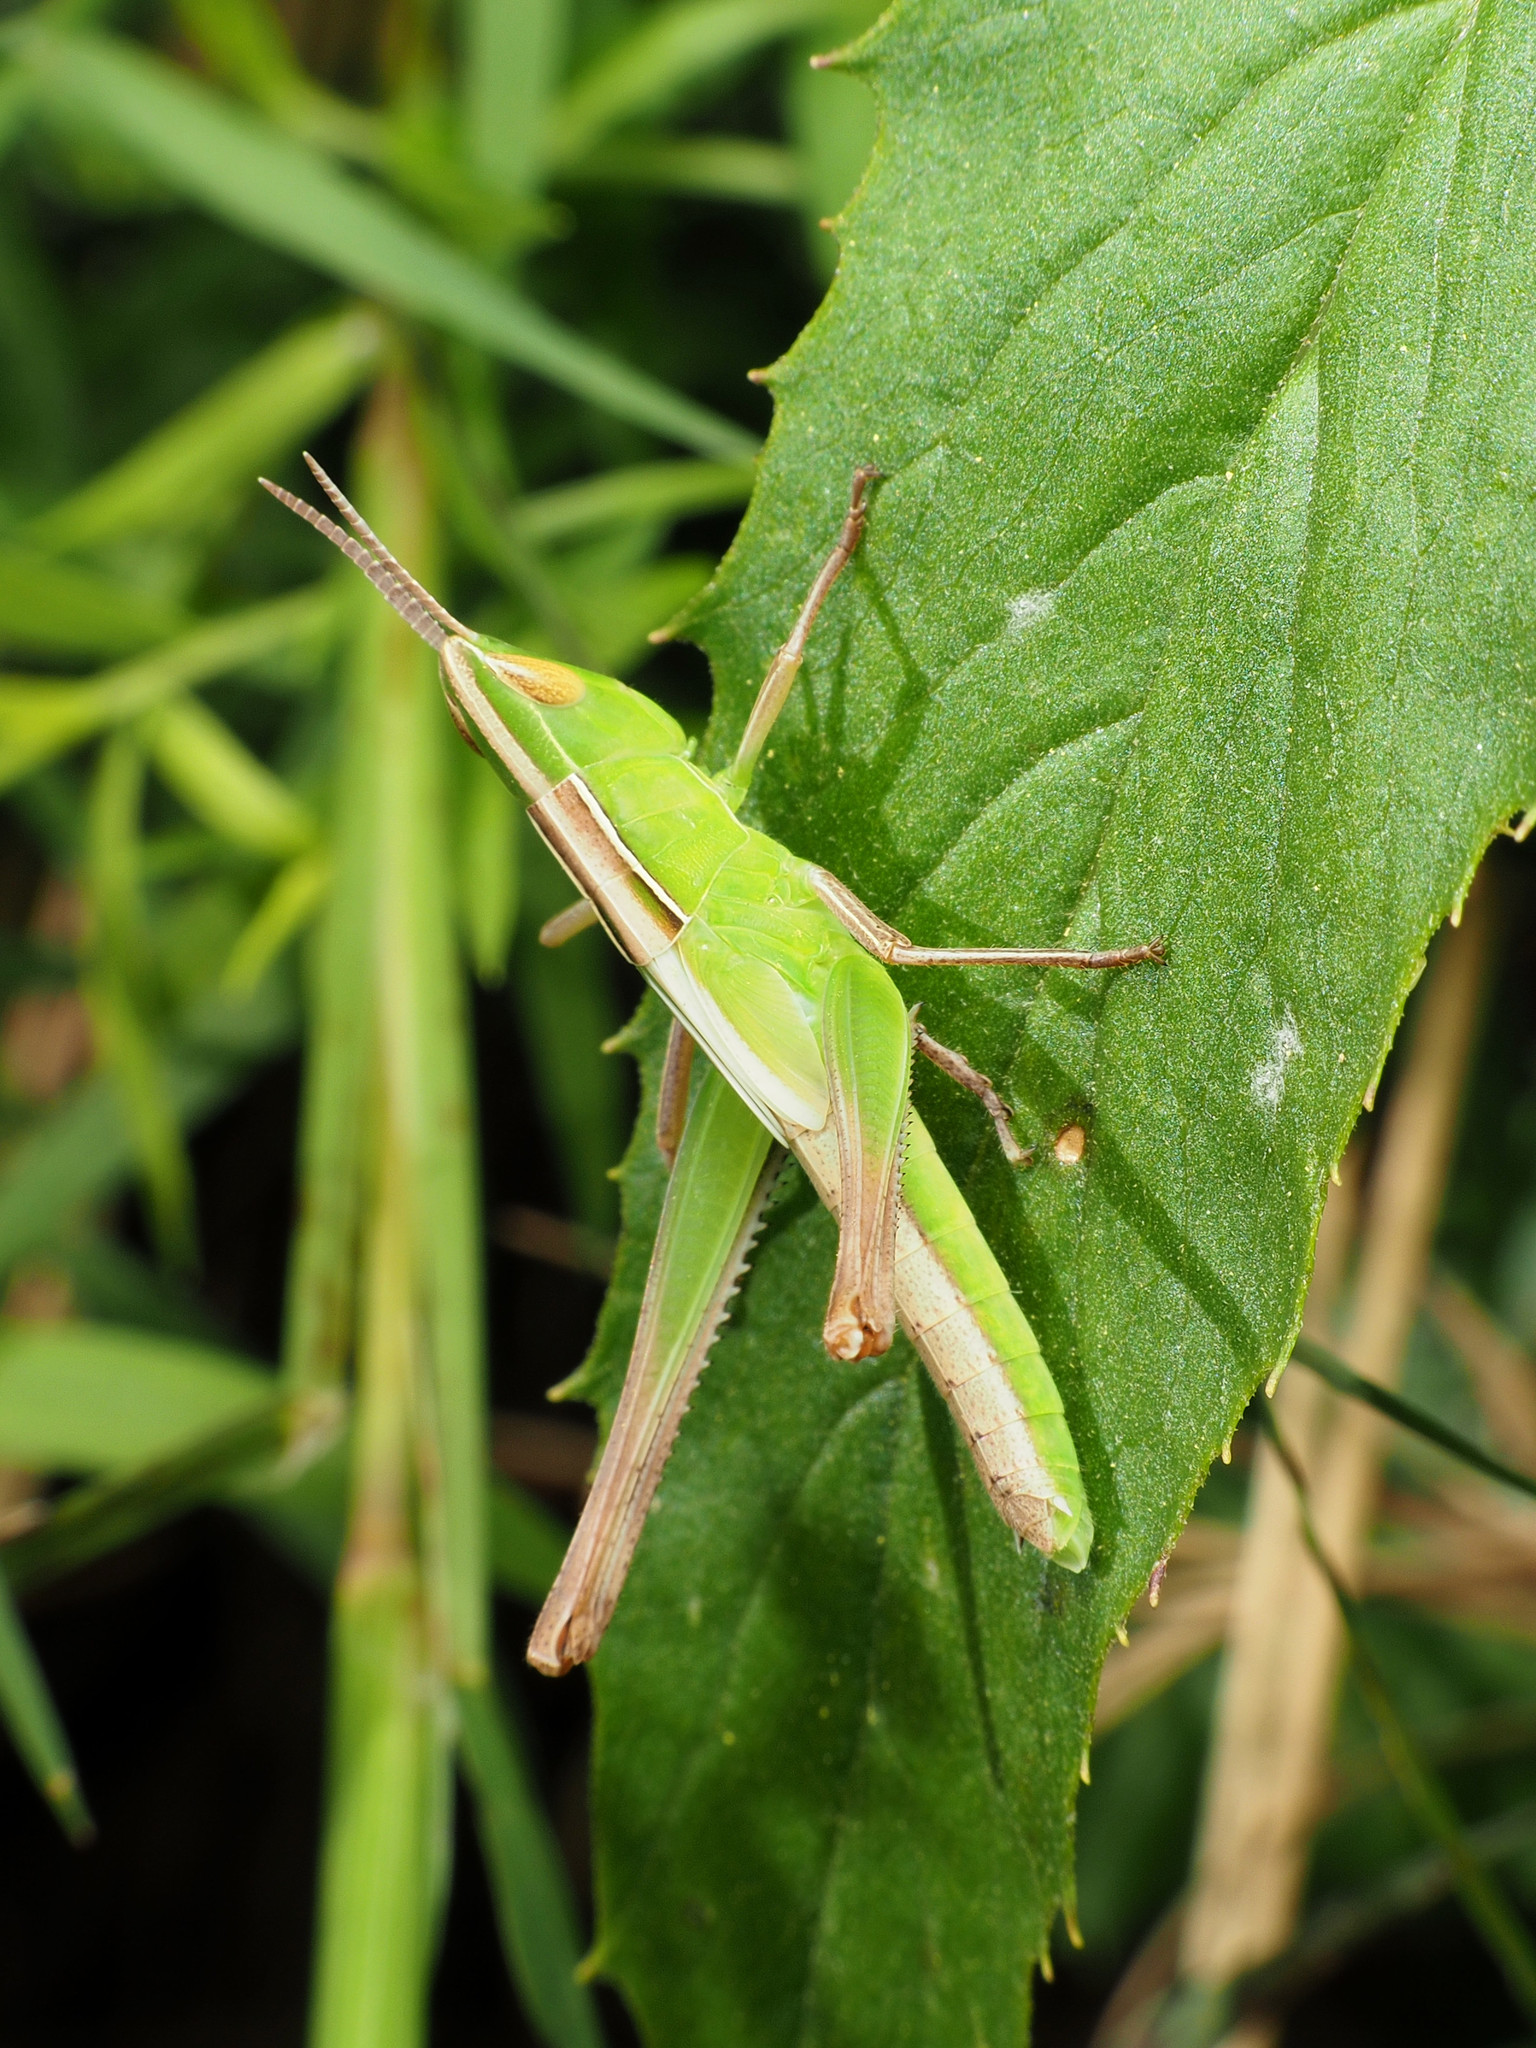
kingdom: Animalia
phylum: Arthropoda
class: Insecta
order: Orthoptera
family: Acrididae
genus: Syrbula
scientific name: Syrbula admirabilis
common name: Handsome grasshopper
